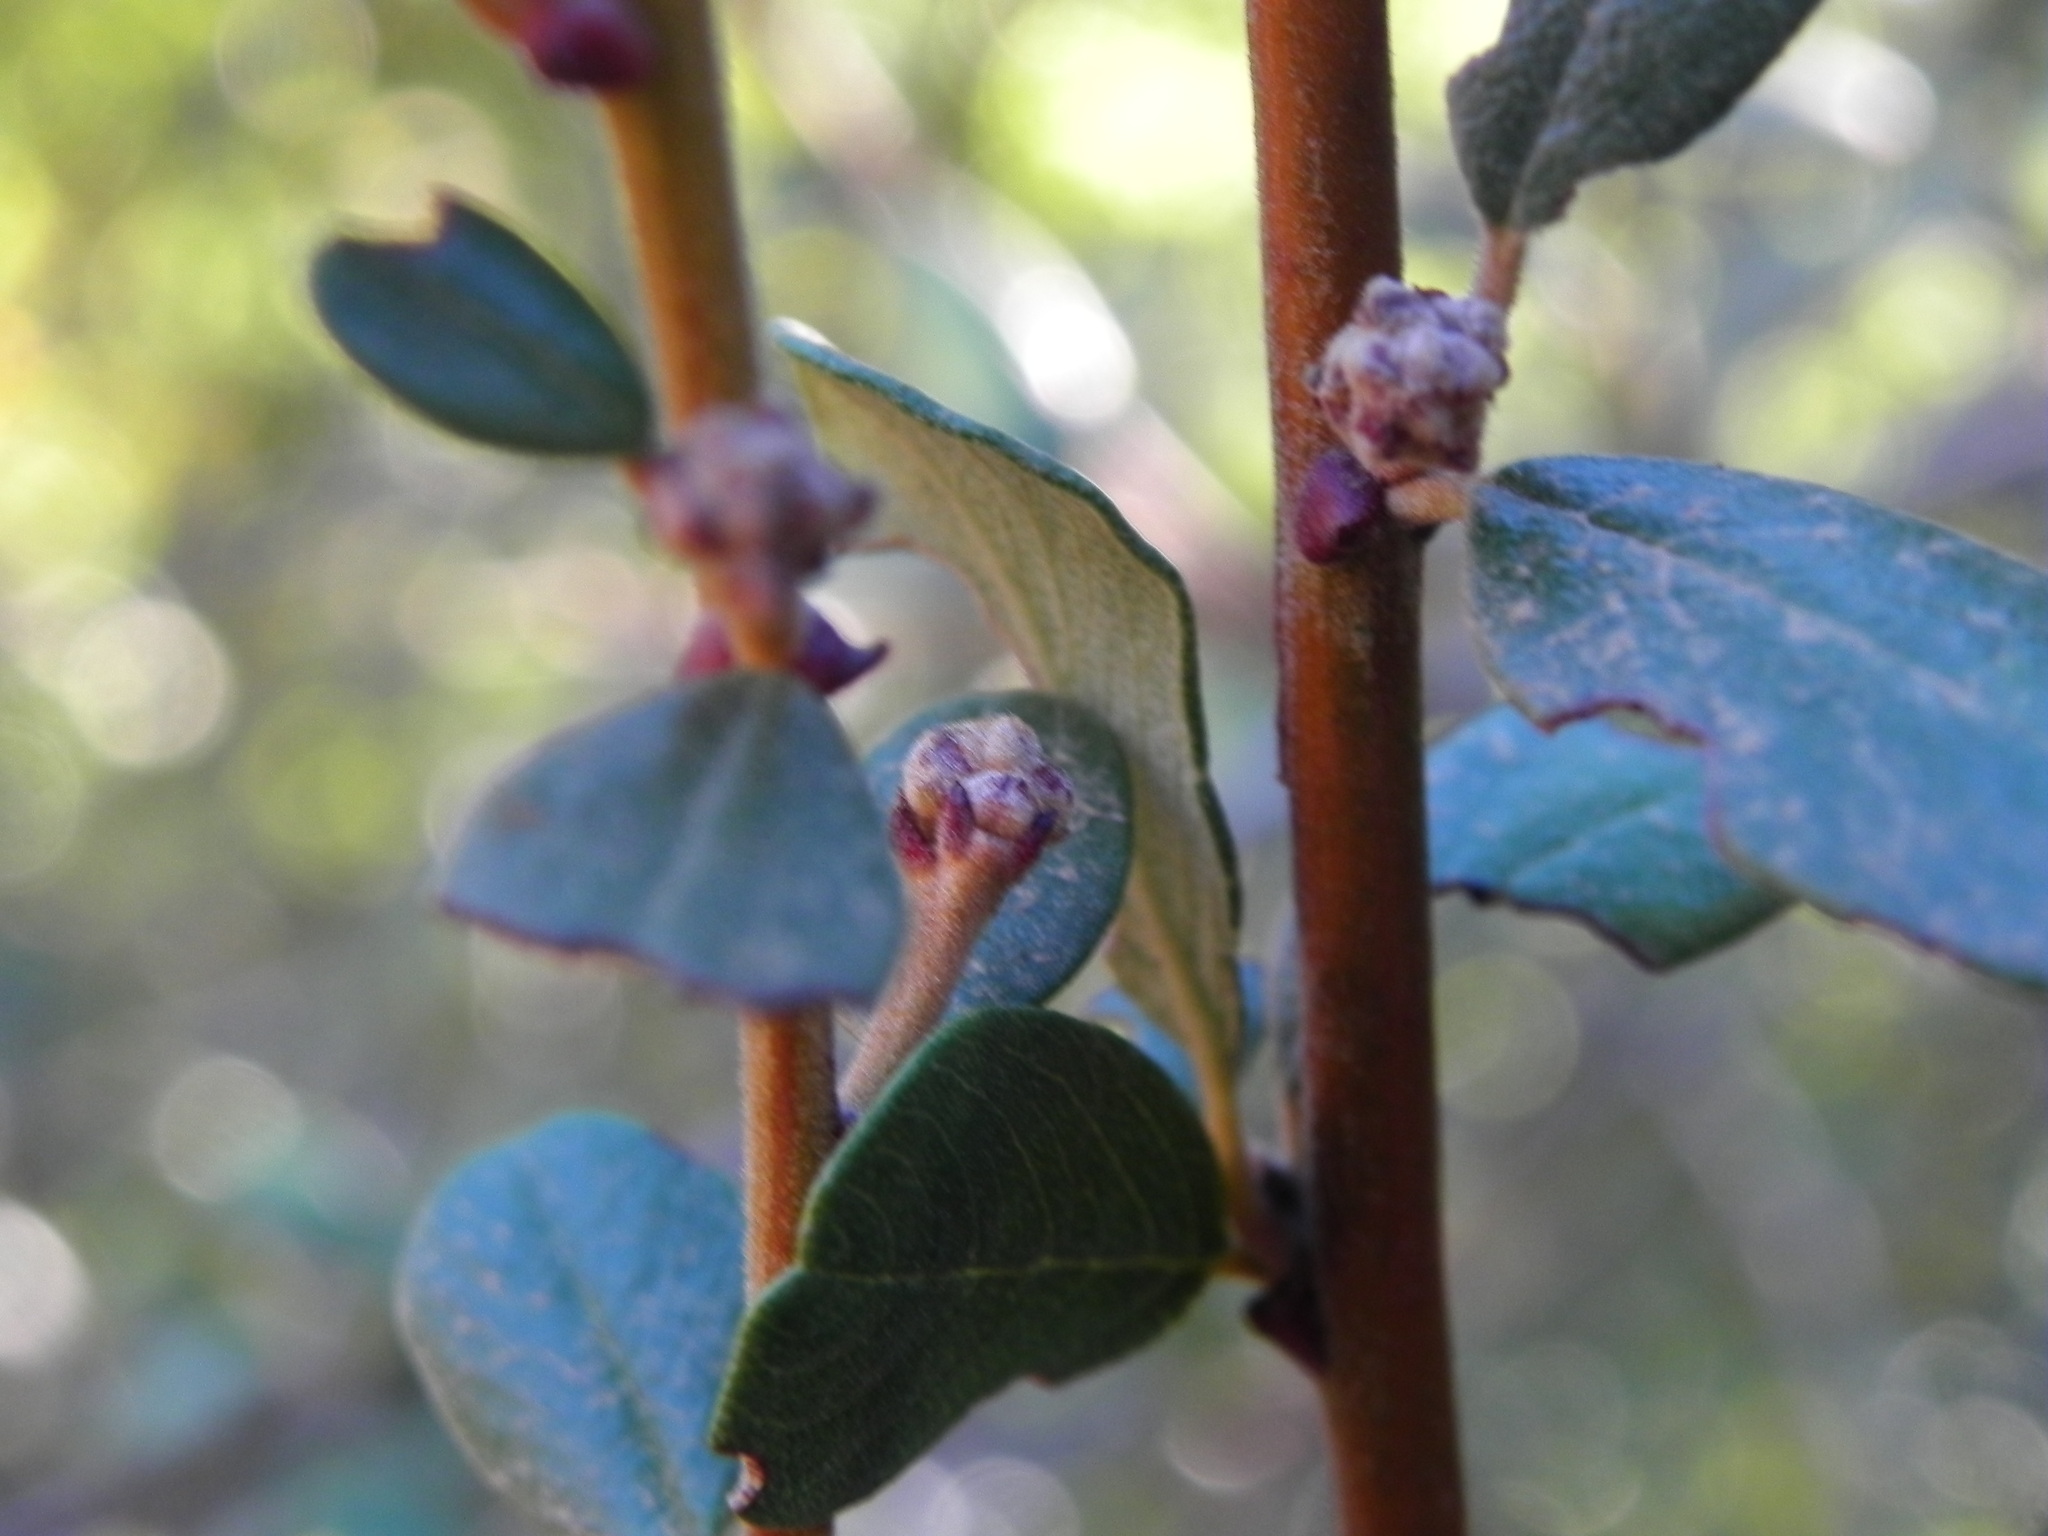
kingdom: Plantae
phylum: Tracheophyta
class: Magnoliopsida
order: Rosales
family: Rhamnaceae
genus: Ceanothus
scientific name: Ceanothus megacarpus
